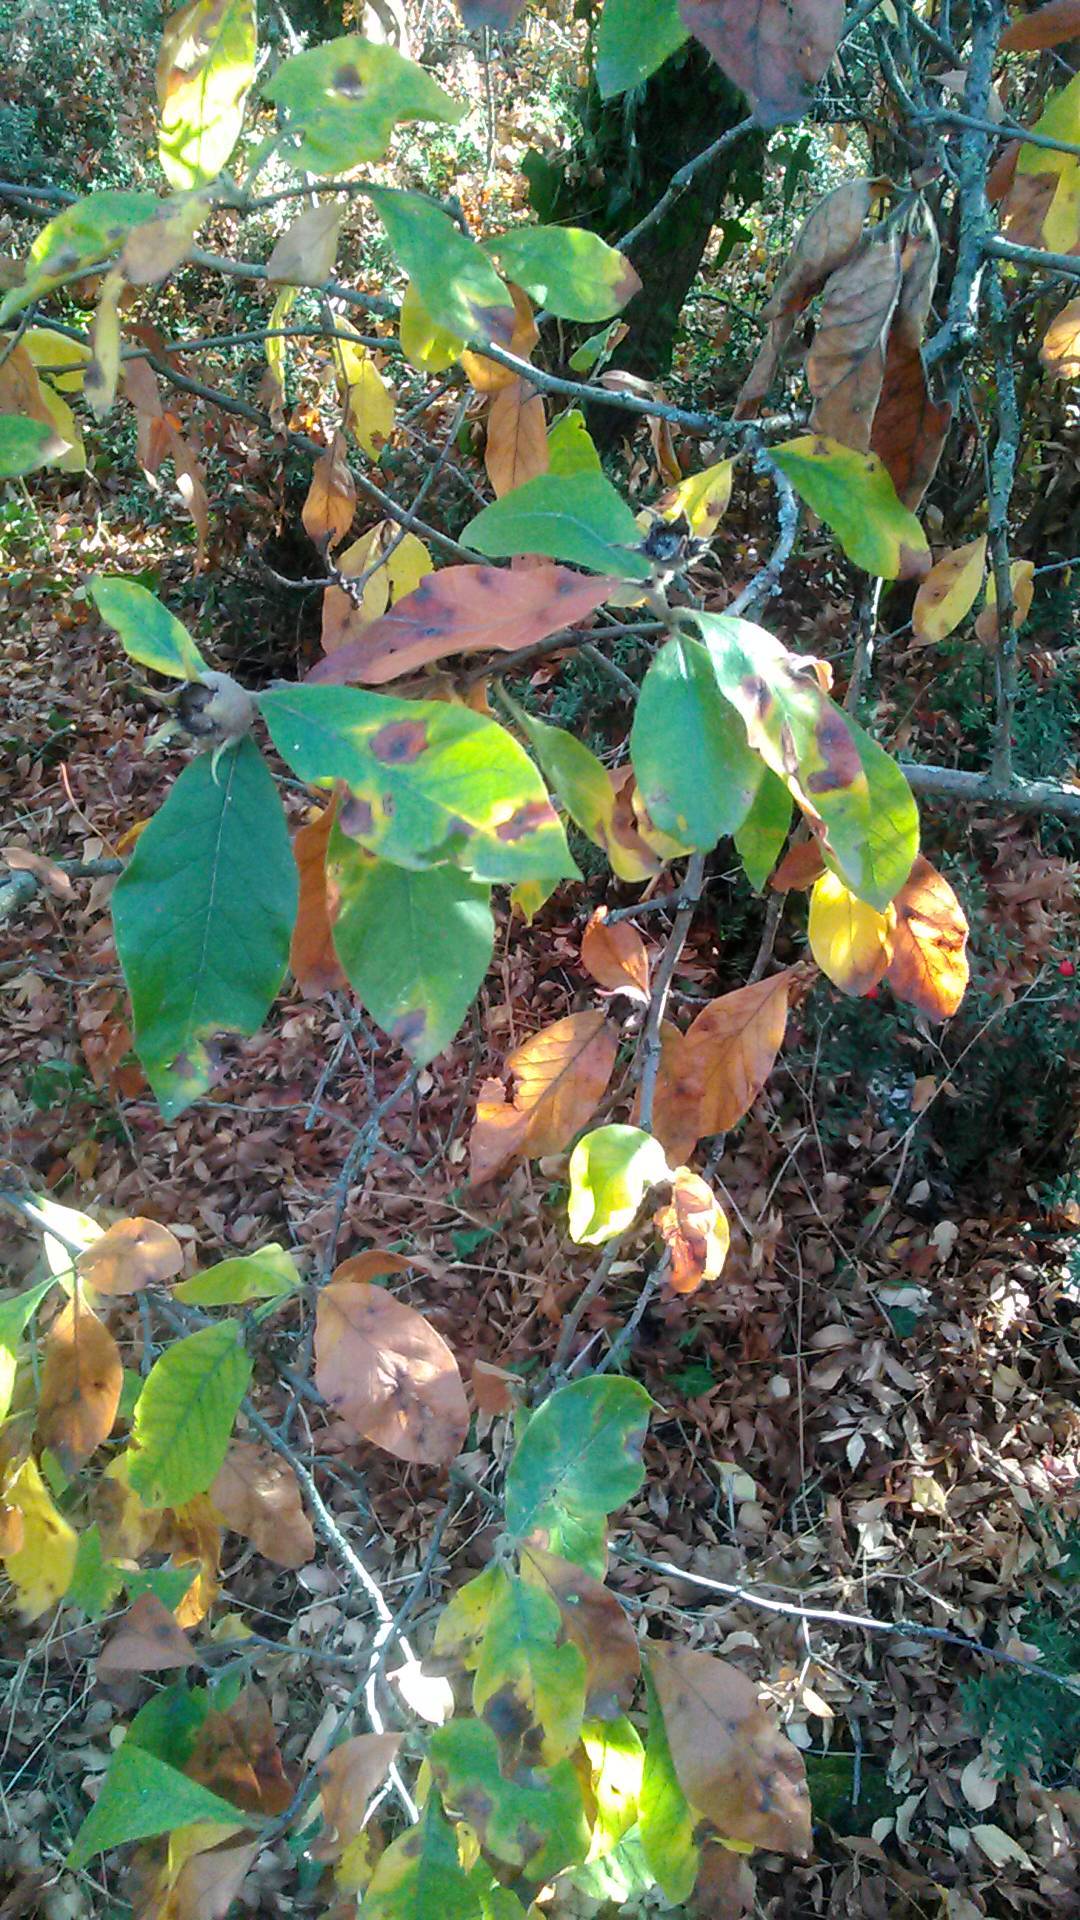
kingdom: Plantae
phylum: Tracheophyta
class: Magnoliopsida
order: Rosales
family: Rosaceae
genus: Mespilus
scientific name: Mespilus germanica
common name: Medlar
